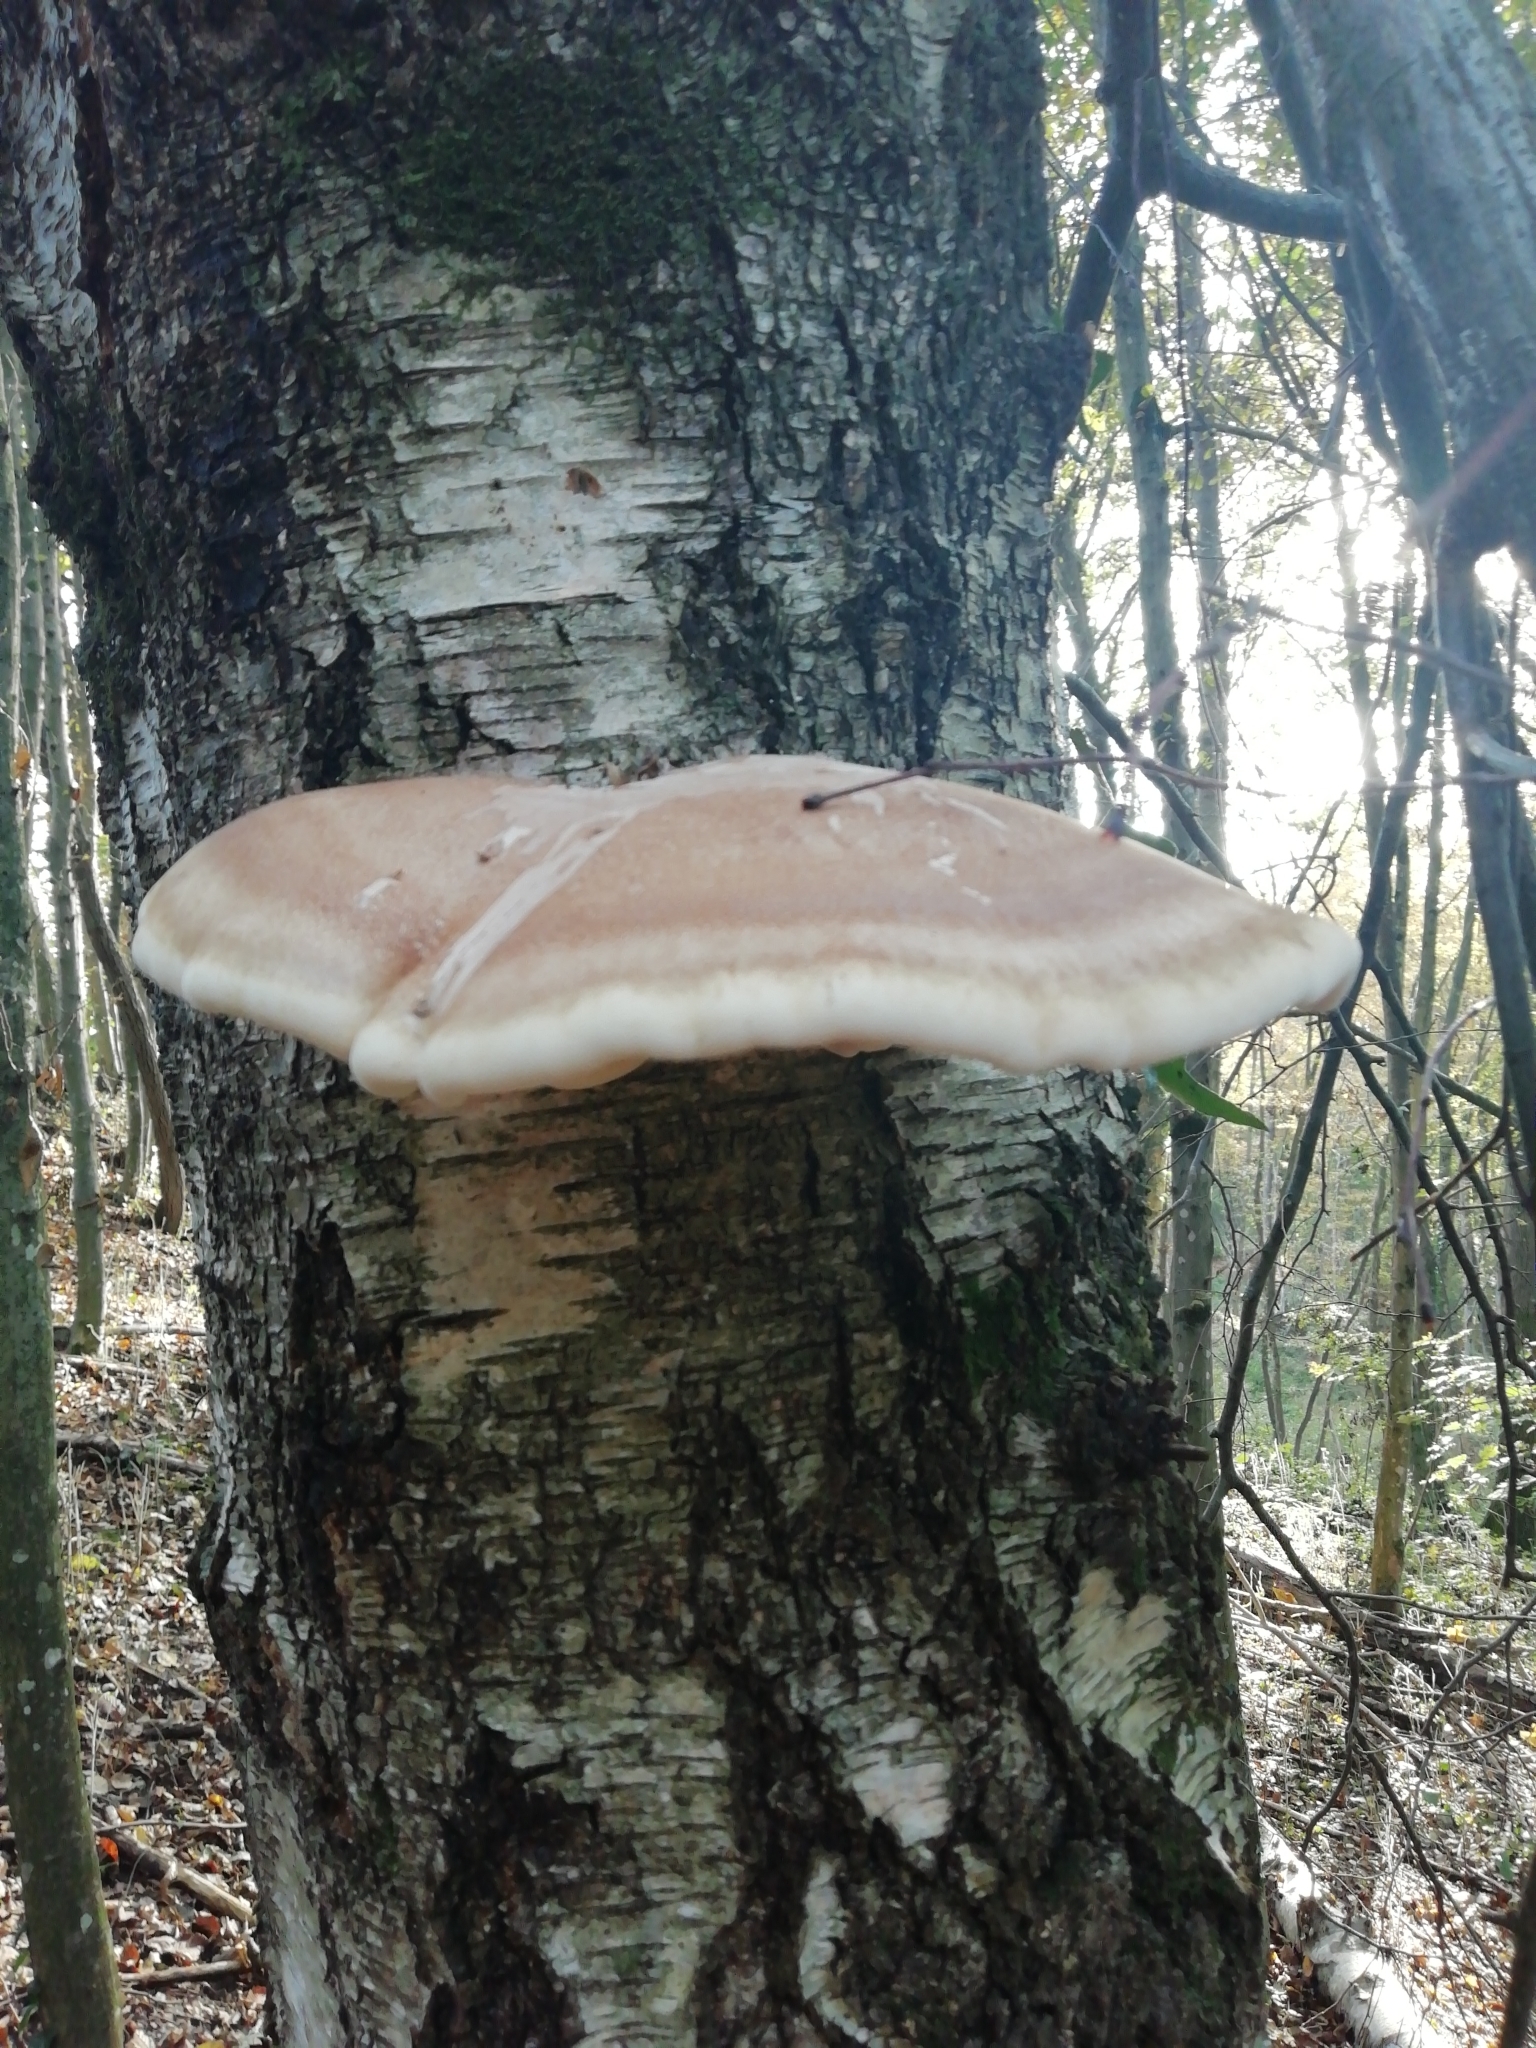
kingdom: Fungi
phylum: Basidiomycota
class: Agaricomycetes
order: Polyporales
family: Fomitopsidaceae
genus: Fomitopsis
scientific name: Fomitopsis betulina
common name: Birch polypore
